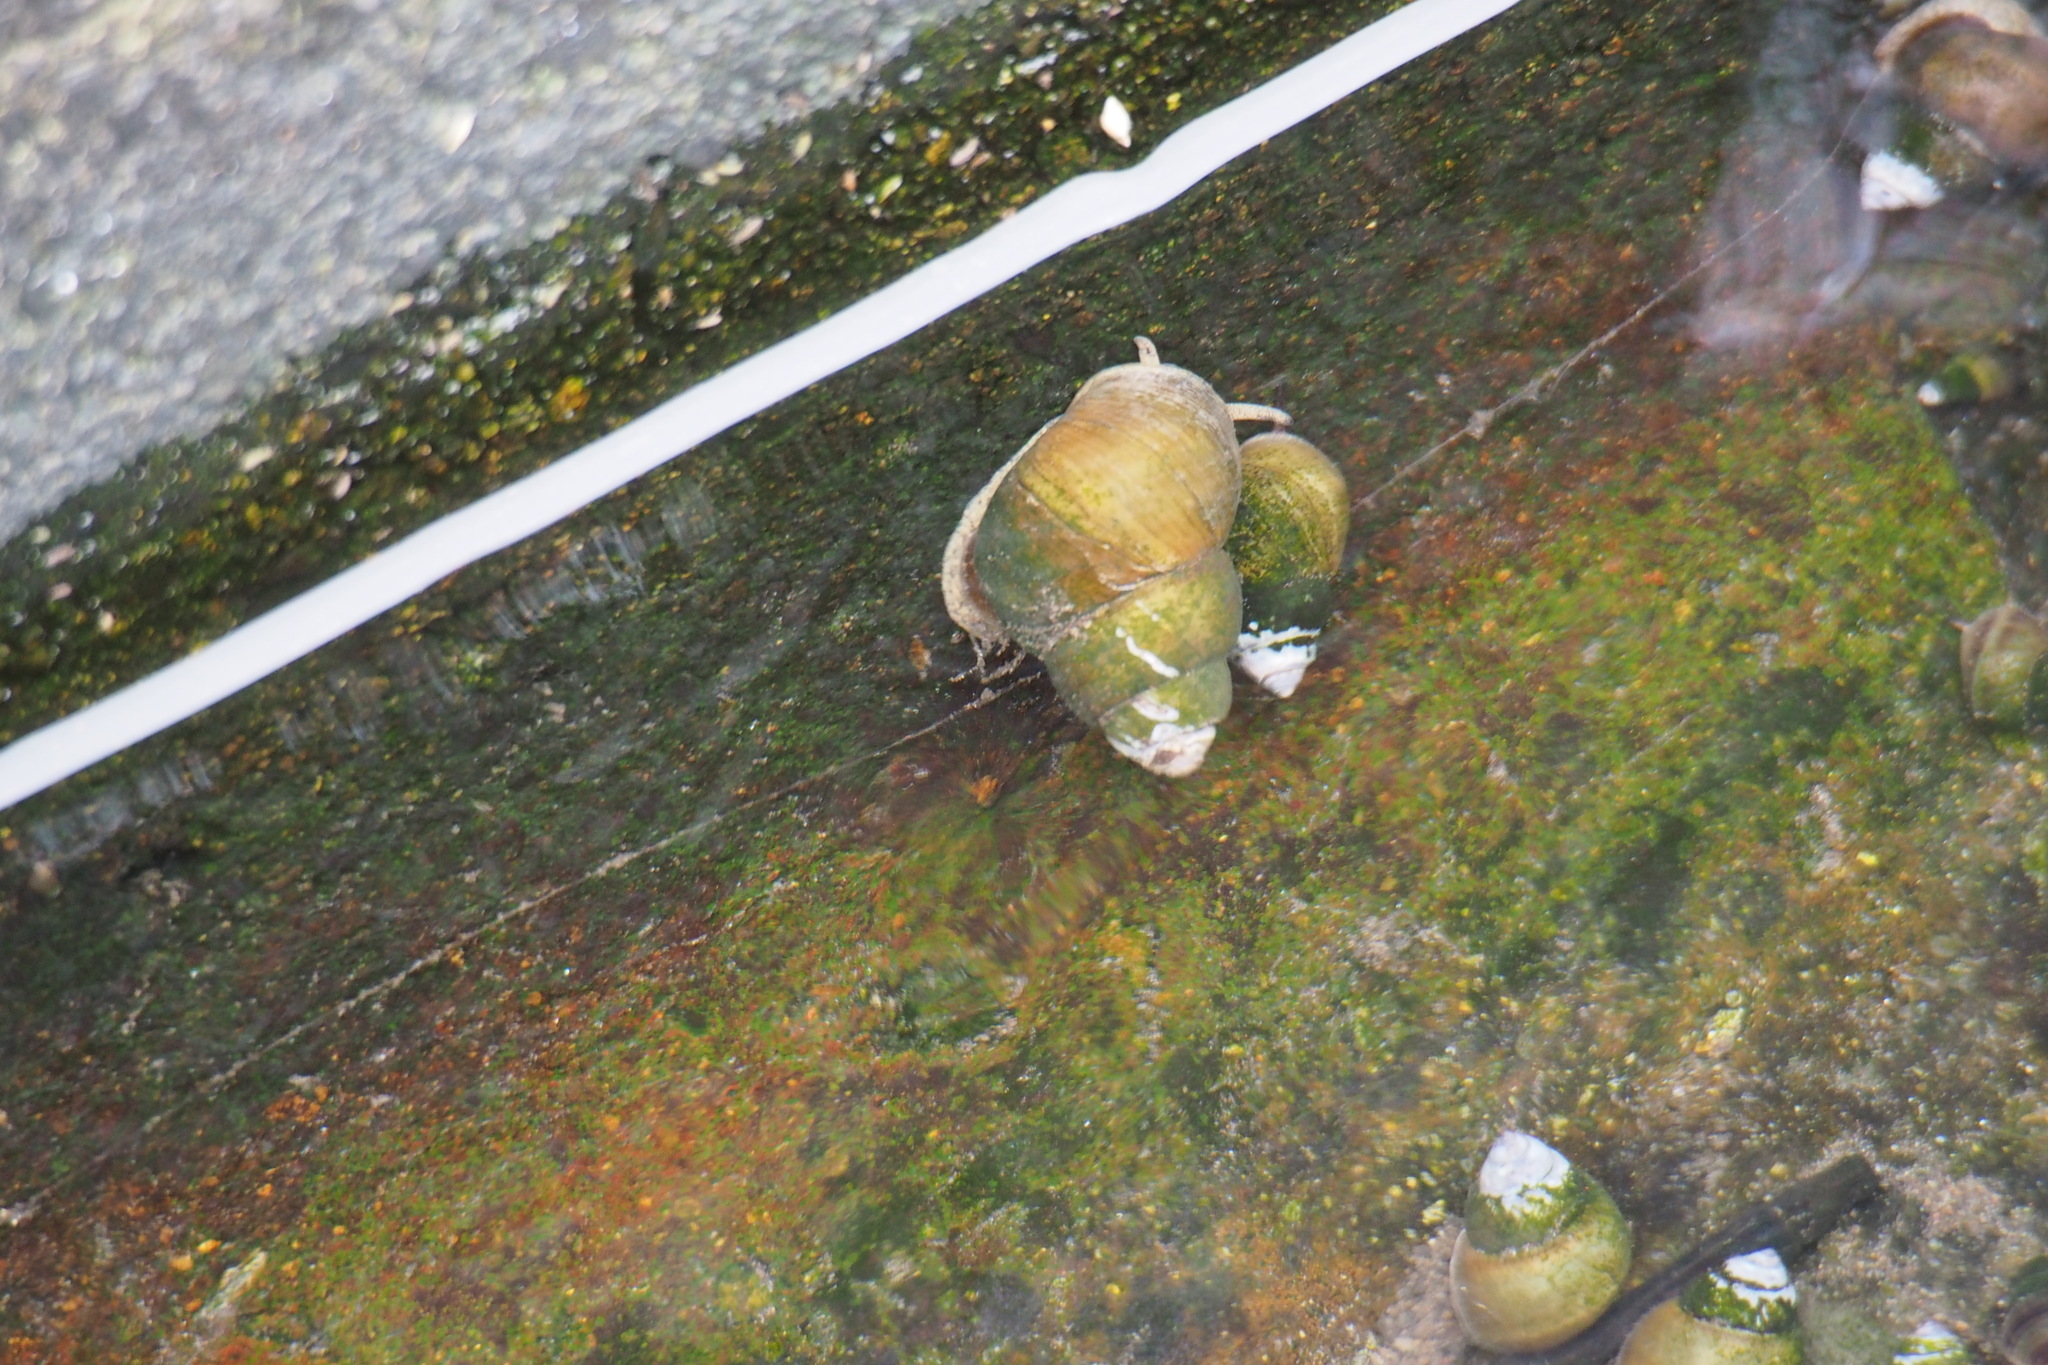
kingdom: Animalia
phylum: Mollusca
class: Gastropoda
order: Architaenioglossa
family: Viviparidae
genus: Sinotaia
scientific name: Sinotaia quadrata
